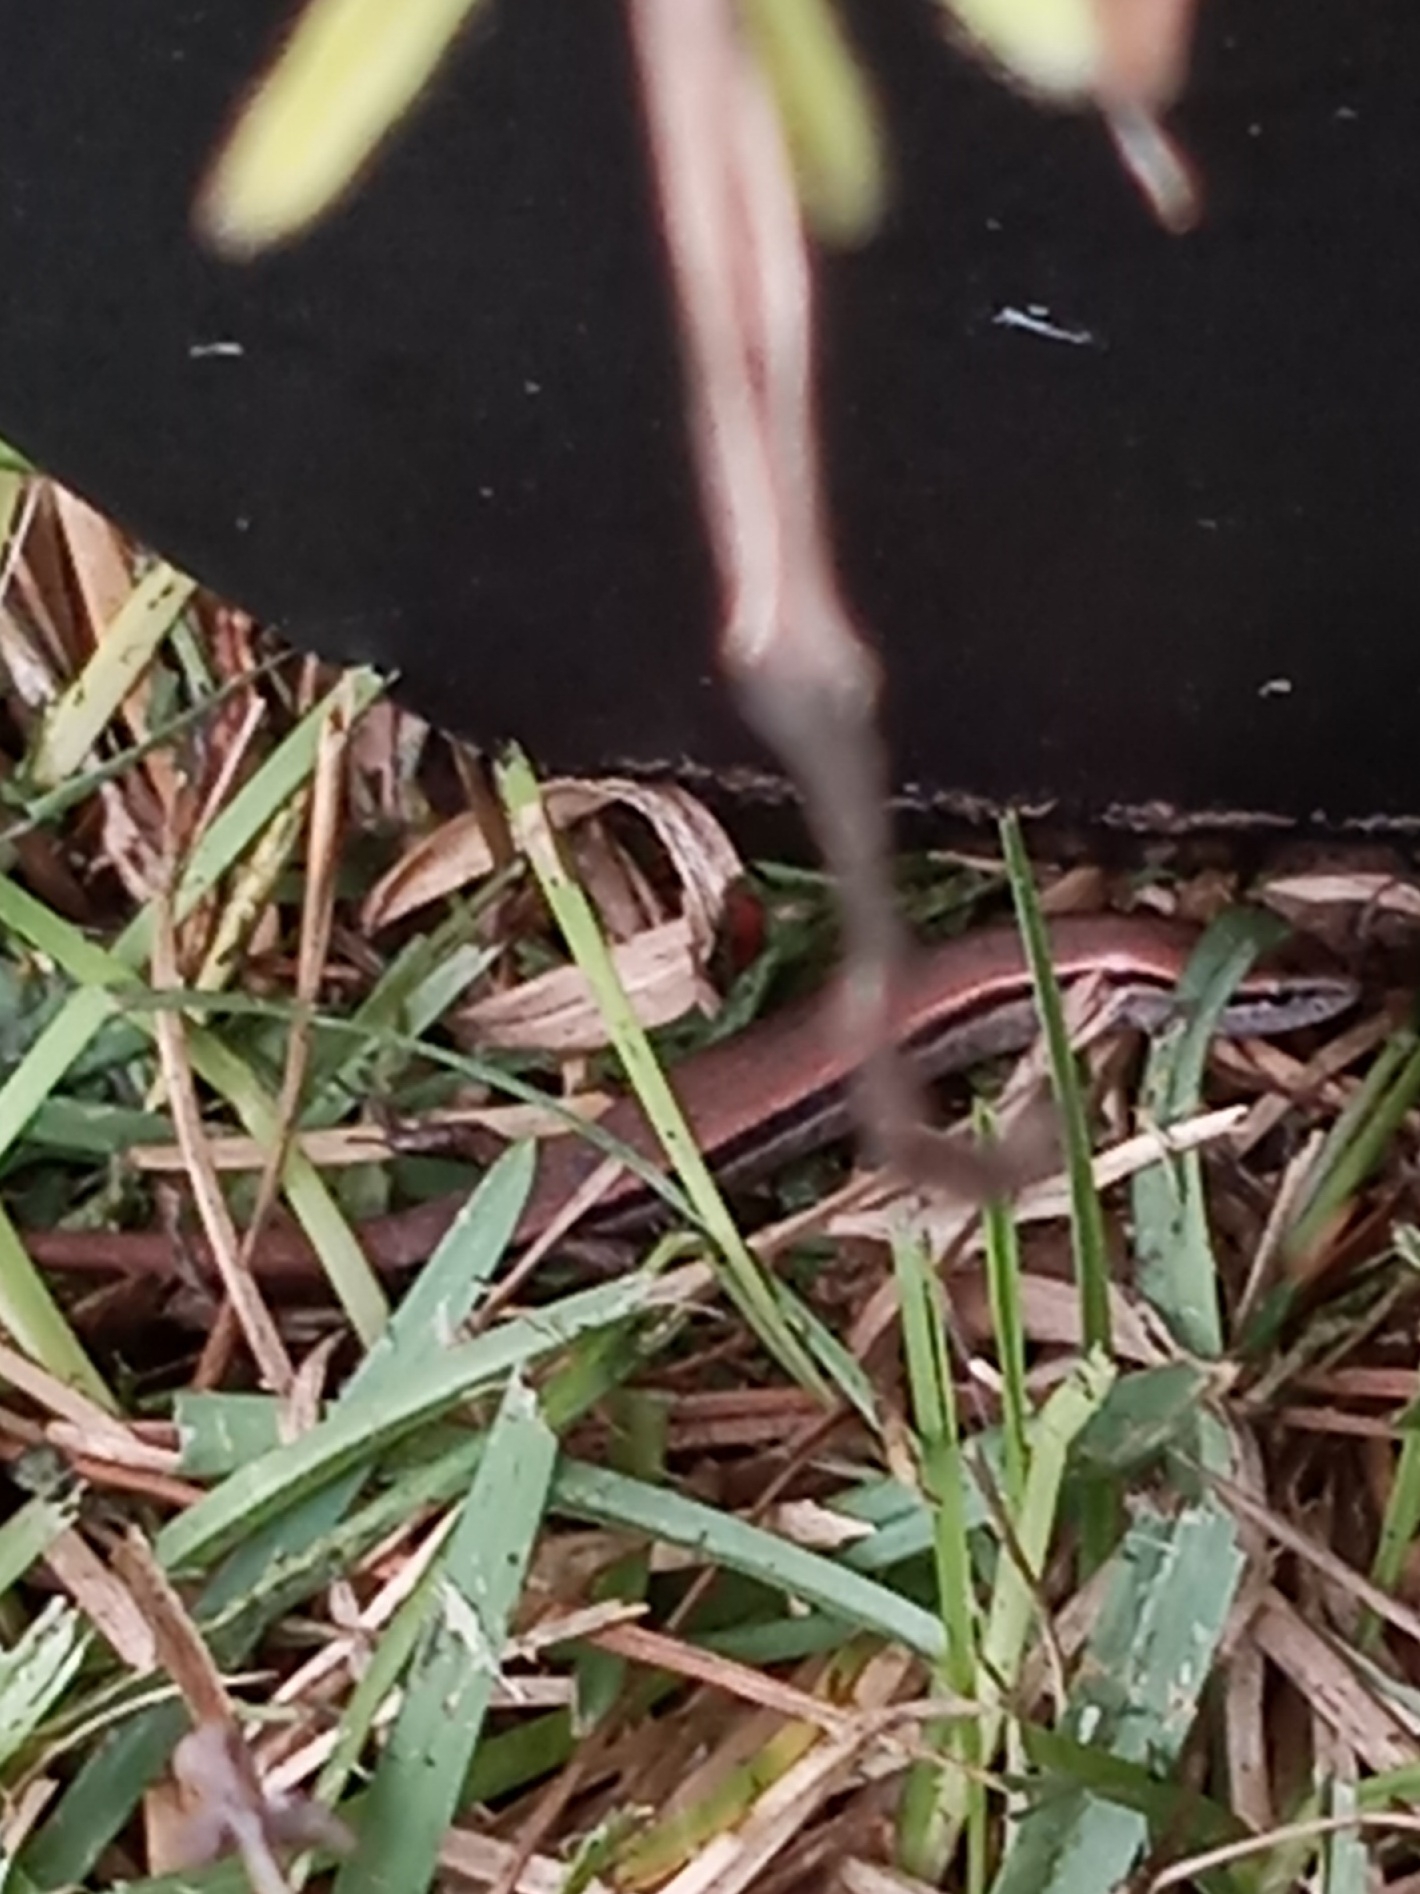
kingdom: Animalia
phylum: Chordata
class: Squamata
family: Scincidae
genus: Scincella
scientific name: Scincella lateralis
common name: Ground skink
